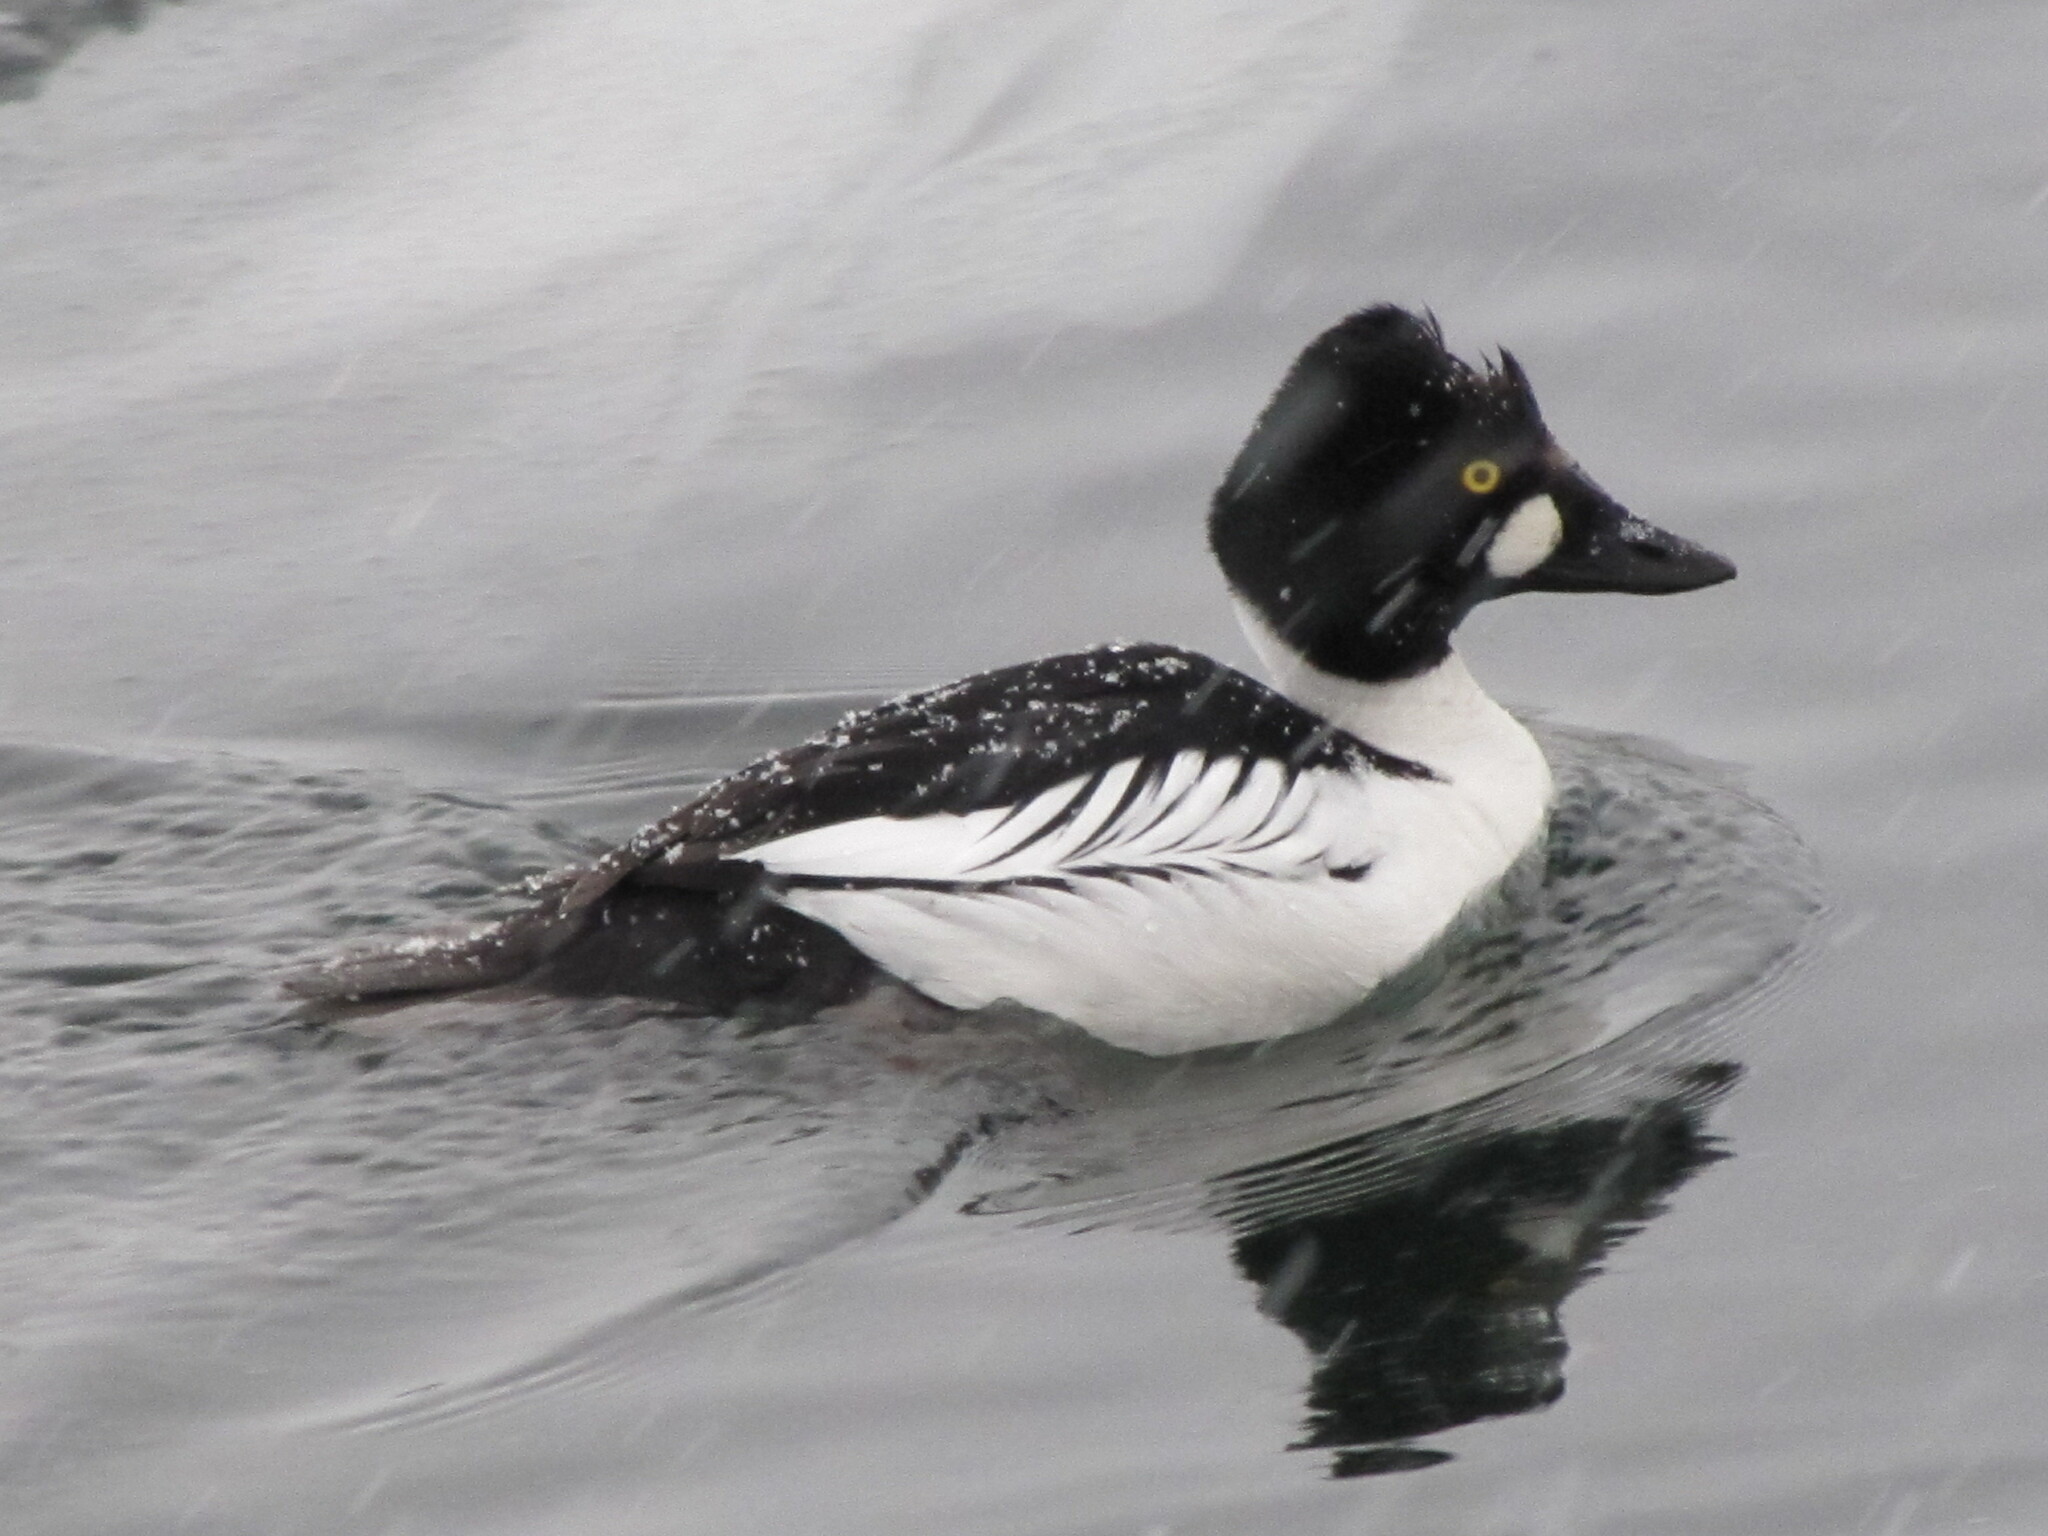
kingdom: Animalia
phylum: Chordata
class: Aves
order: Anseriformes
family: Anatidae
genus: Bucephala
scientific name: Bucephala clangula
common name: Common goldeneye
